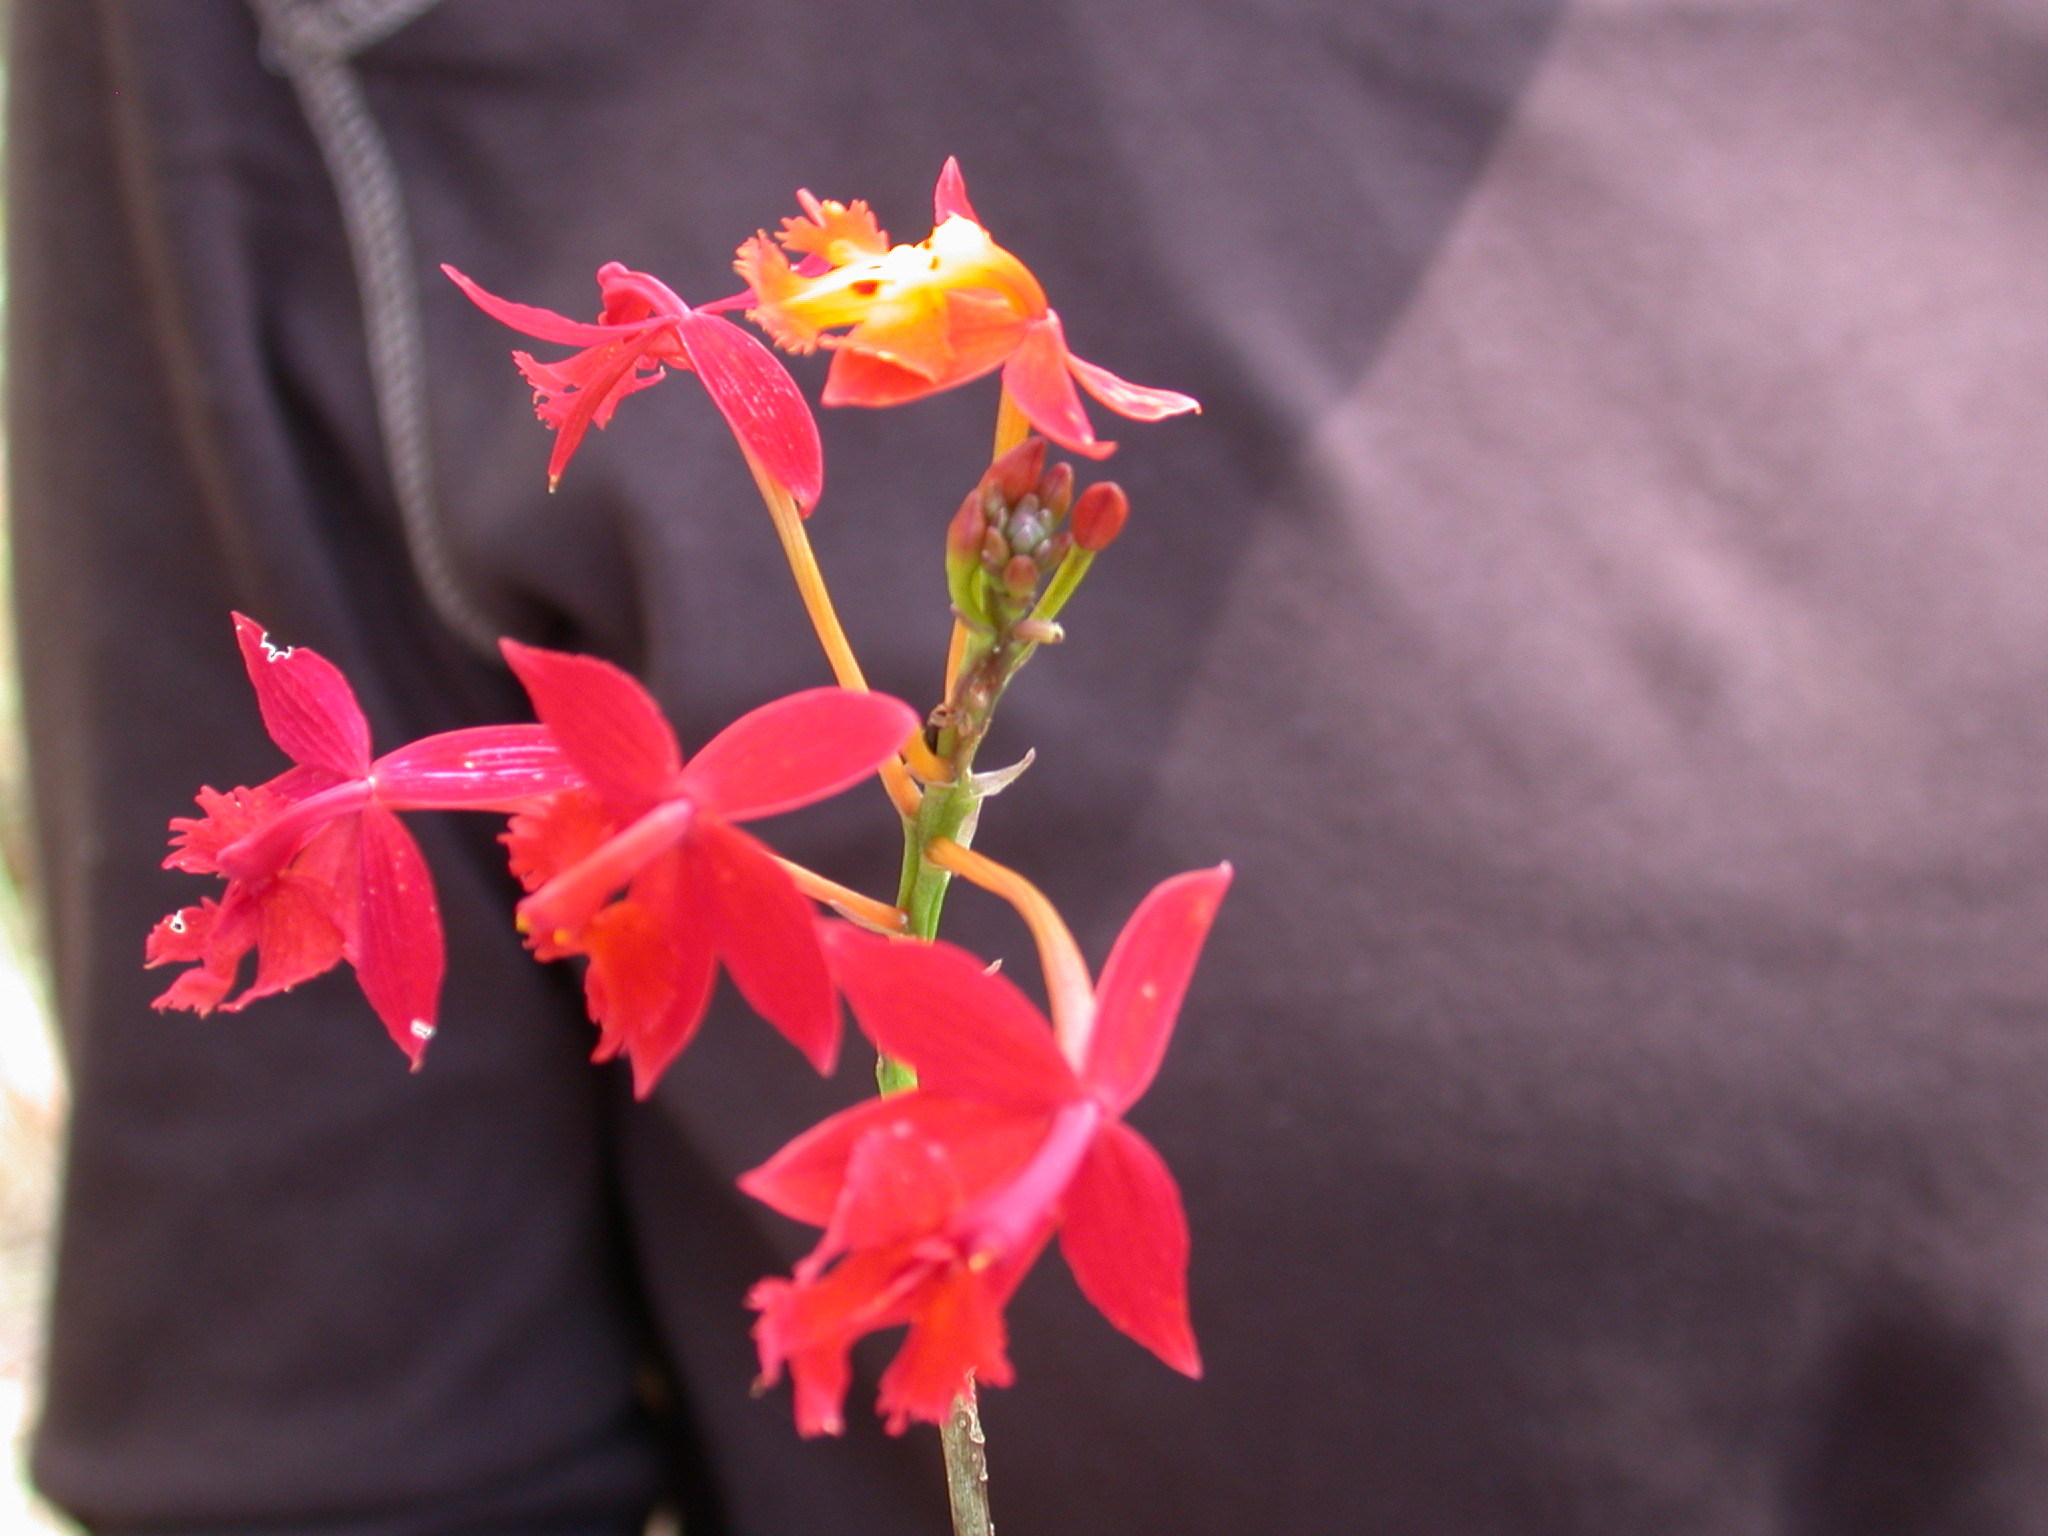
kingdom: Plantae
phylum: Tracheophyta
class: Liliopsida
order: Asparagales
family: Orchidaceae
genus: Epidendrum
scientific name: Epidendrum radicans
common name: Fire star orchid
